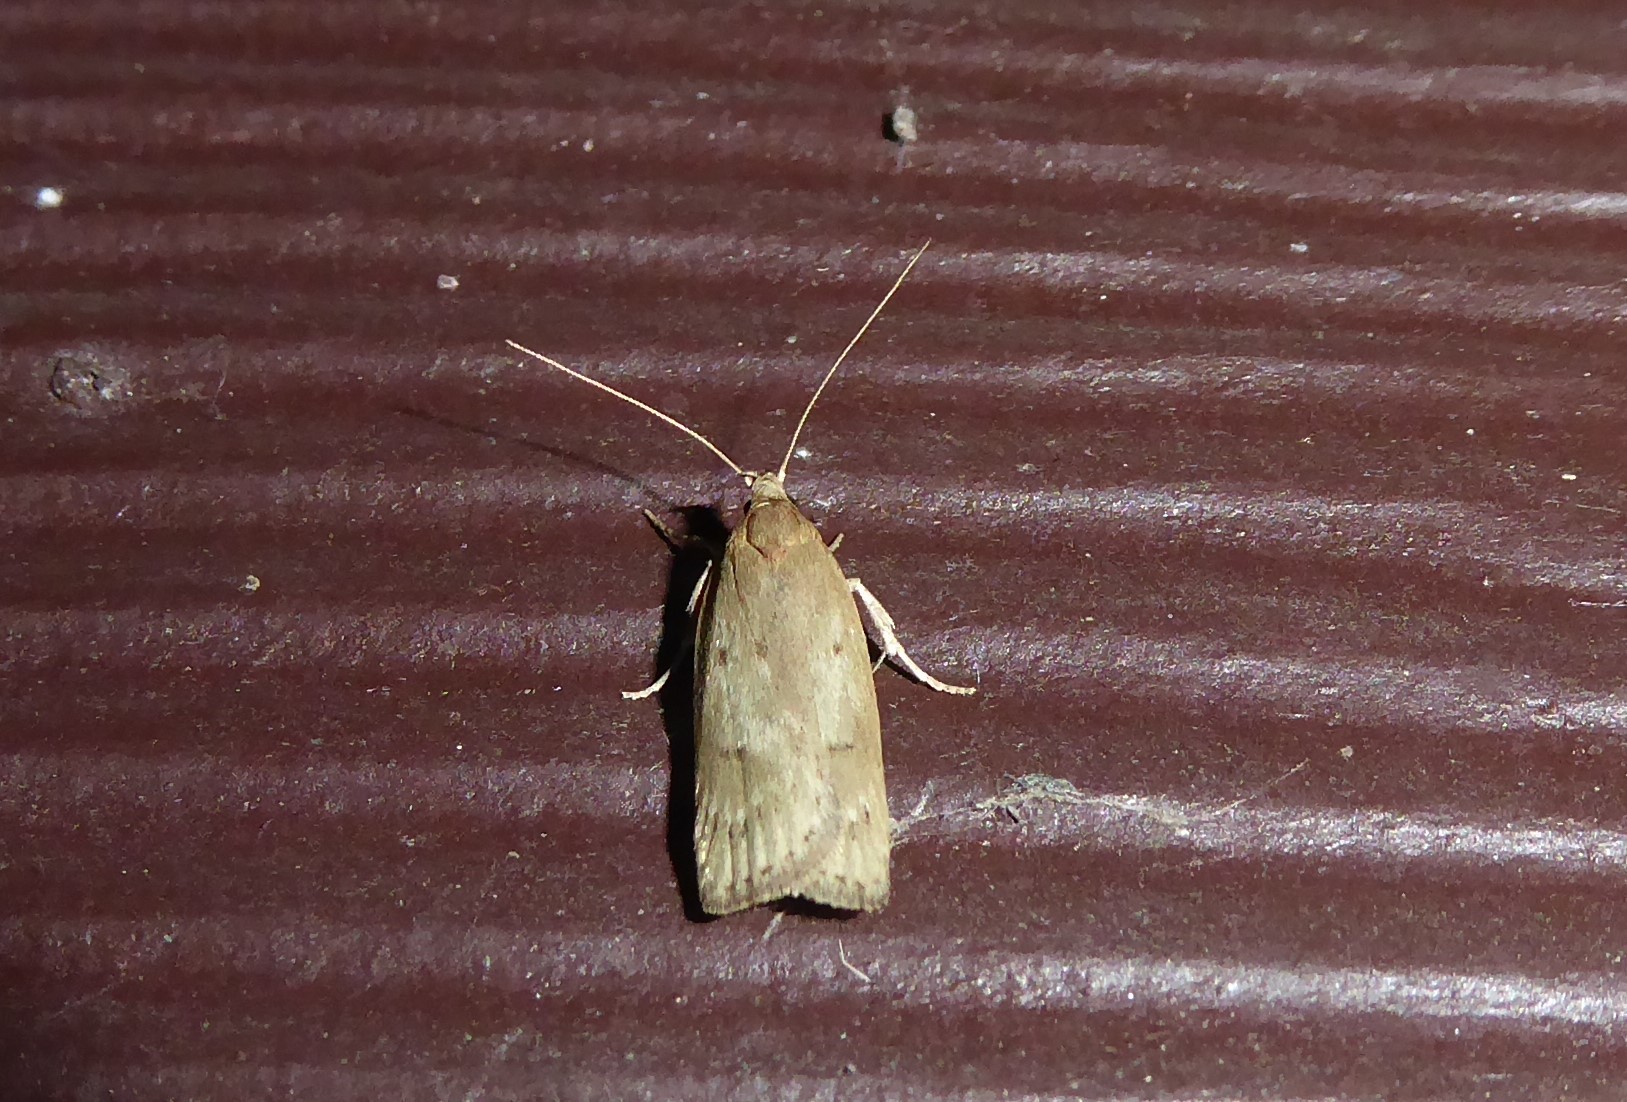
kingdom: Animalia
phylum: Arthropoda
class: Insecta
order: Lepidoptera
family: Depressariidae
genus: Phaeosaces
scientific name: Phaeosaces apocrypta
